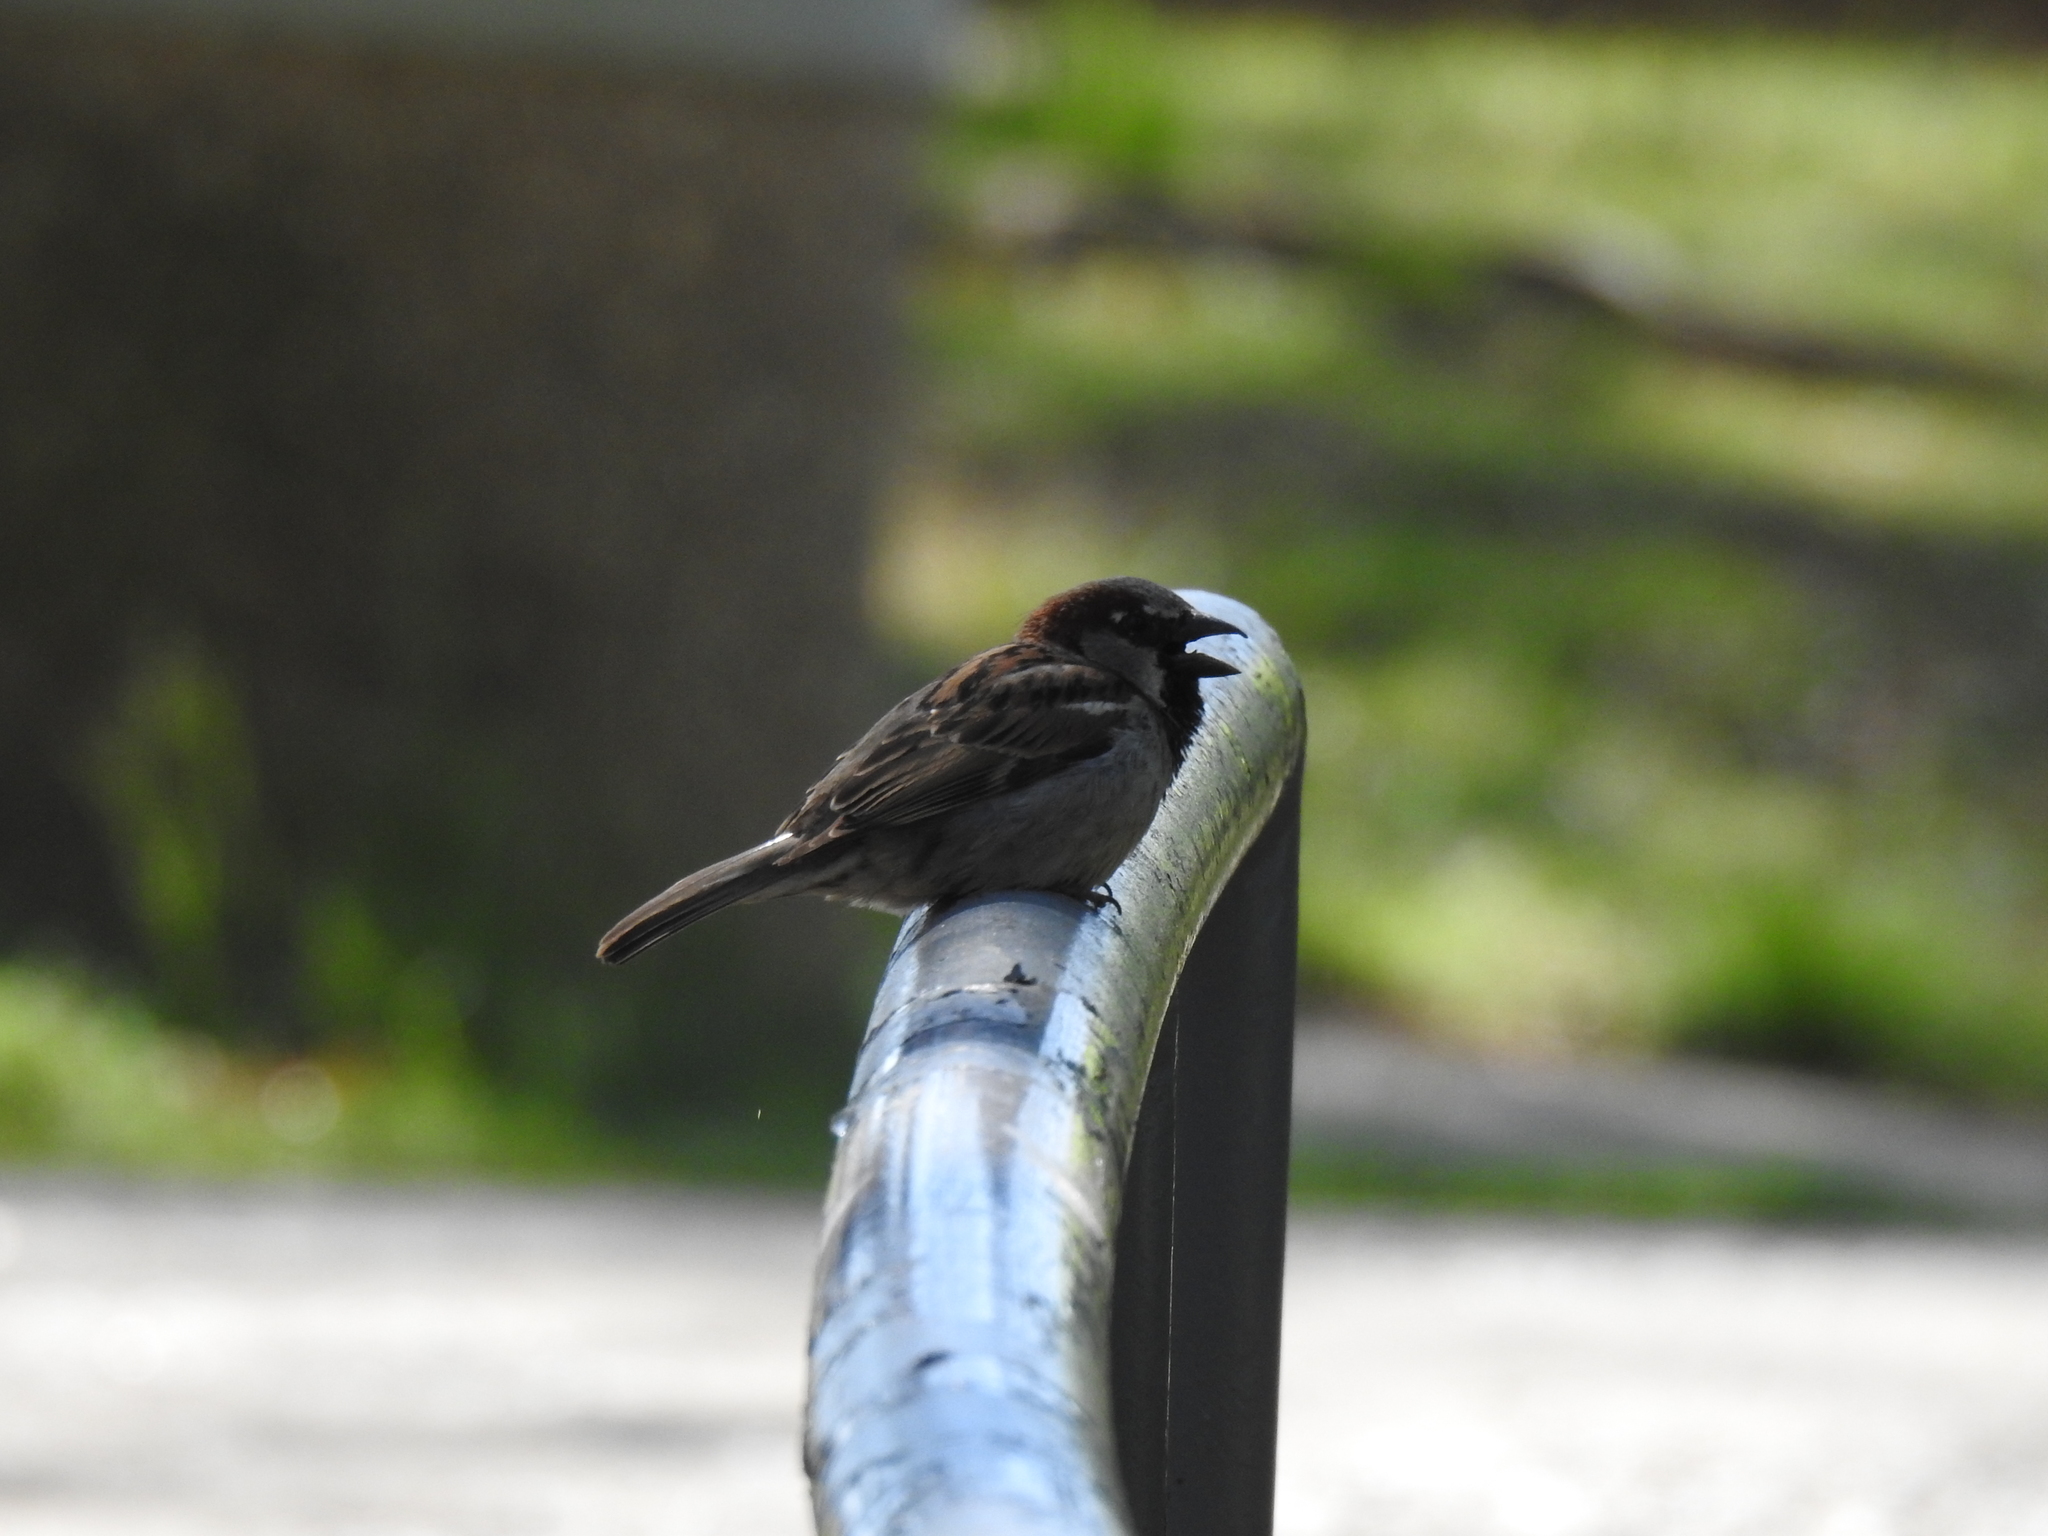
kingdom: Animalia
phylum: Chordata
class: Aves
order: Passeriformes
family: Passeridae
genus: Passer
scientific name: Passer domesticus
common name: House sparrow
